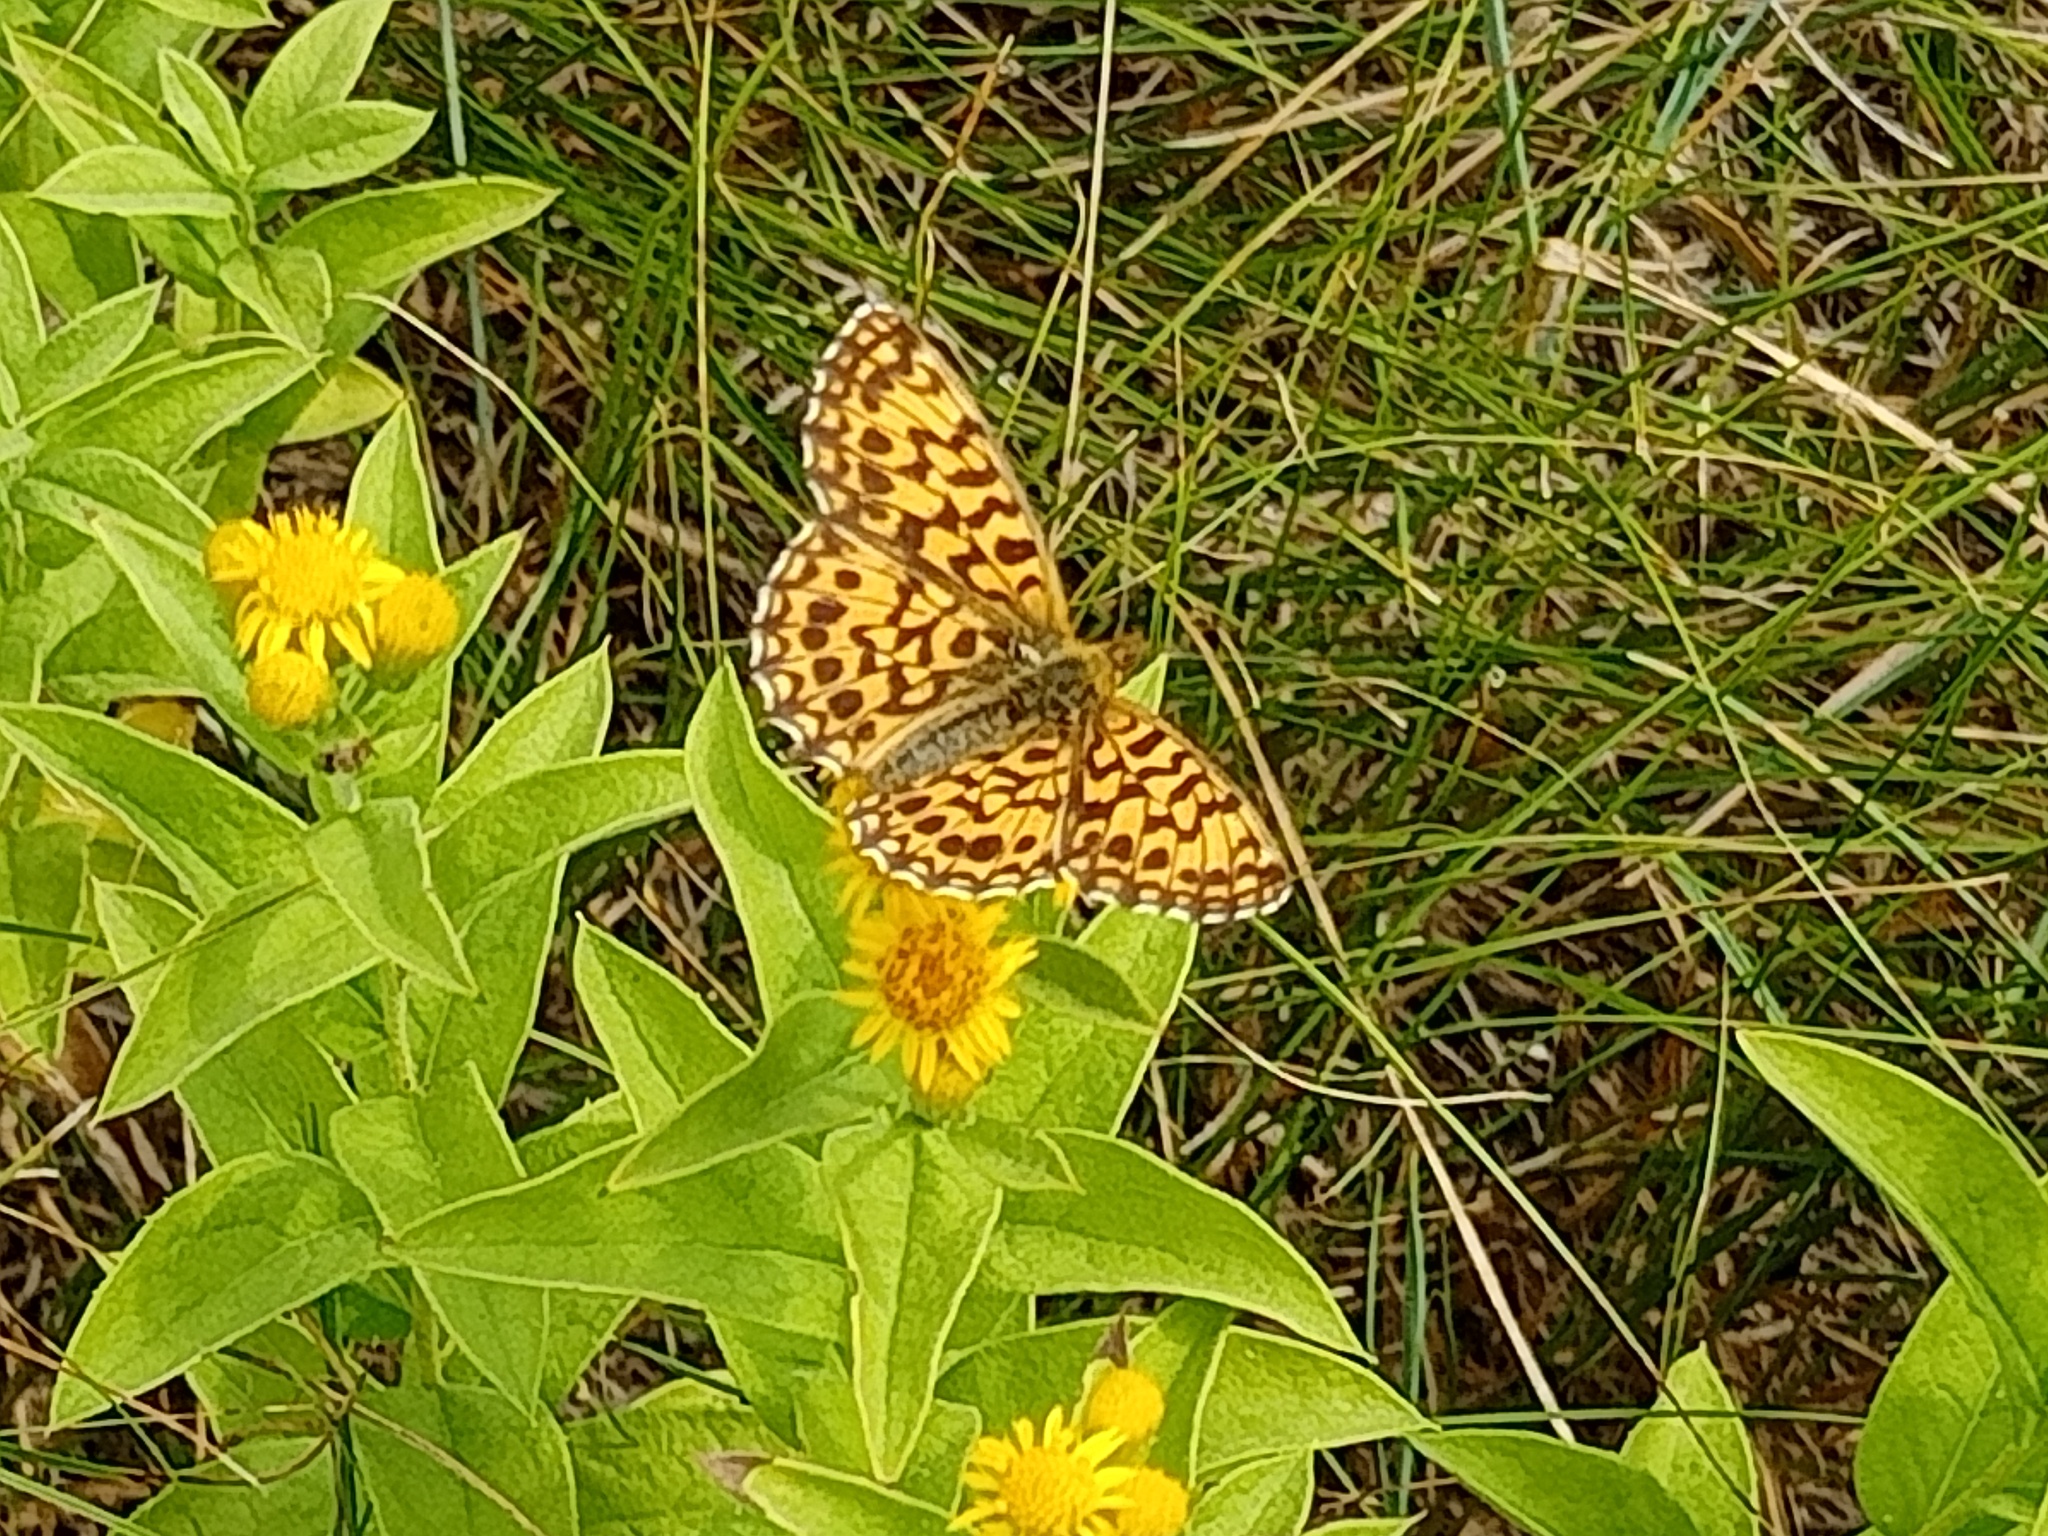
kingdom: Animalia
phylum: Arthropoda
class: Insecta
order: Lepidoptera
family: Nymphalidae
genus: Boloria
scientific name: Boloria dia
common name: Weaver's fritillary
